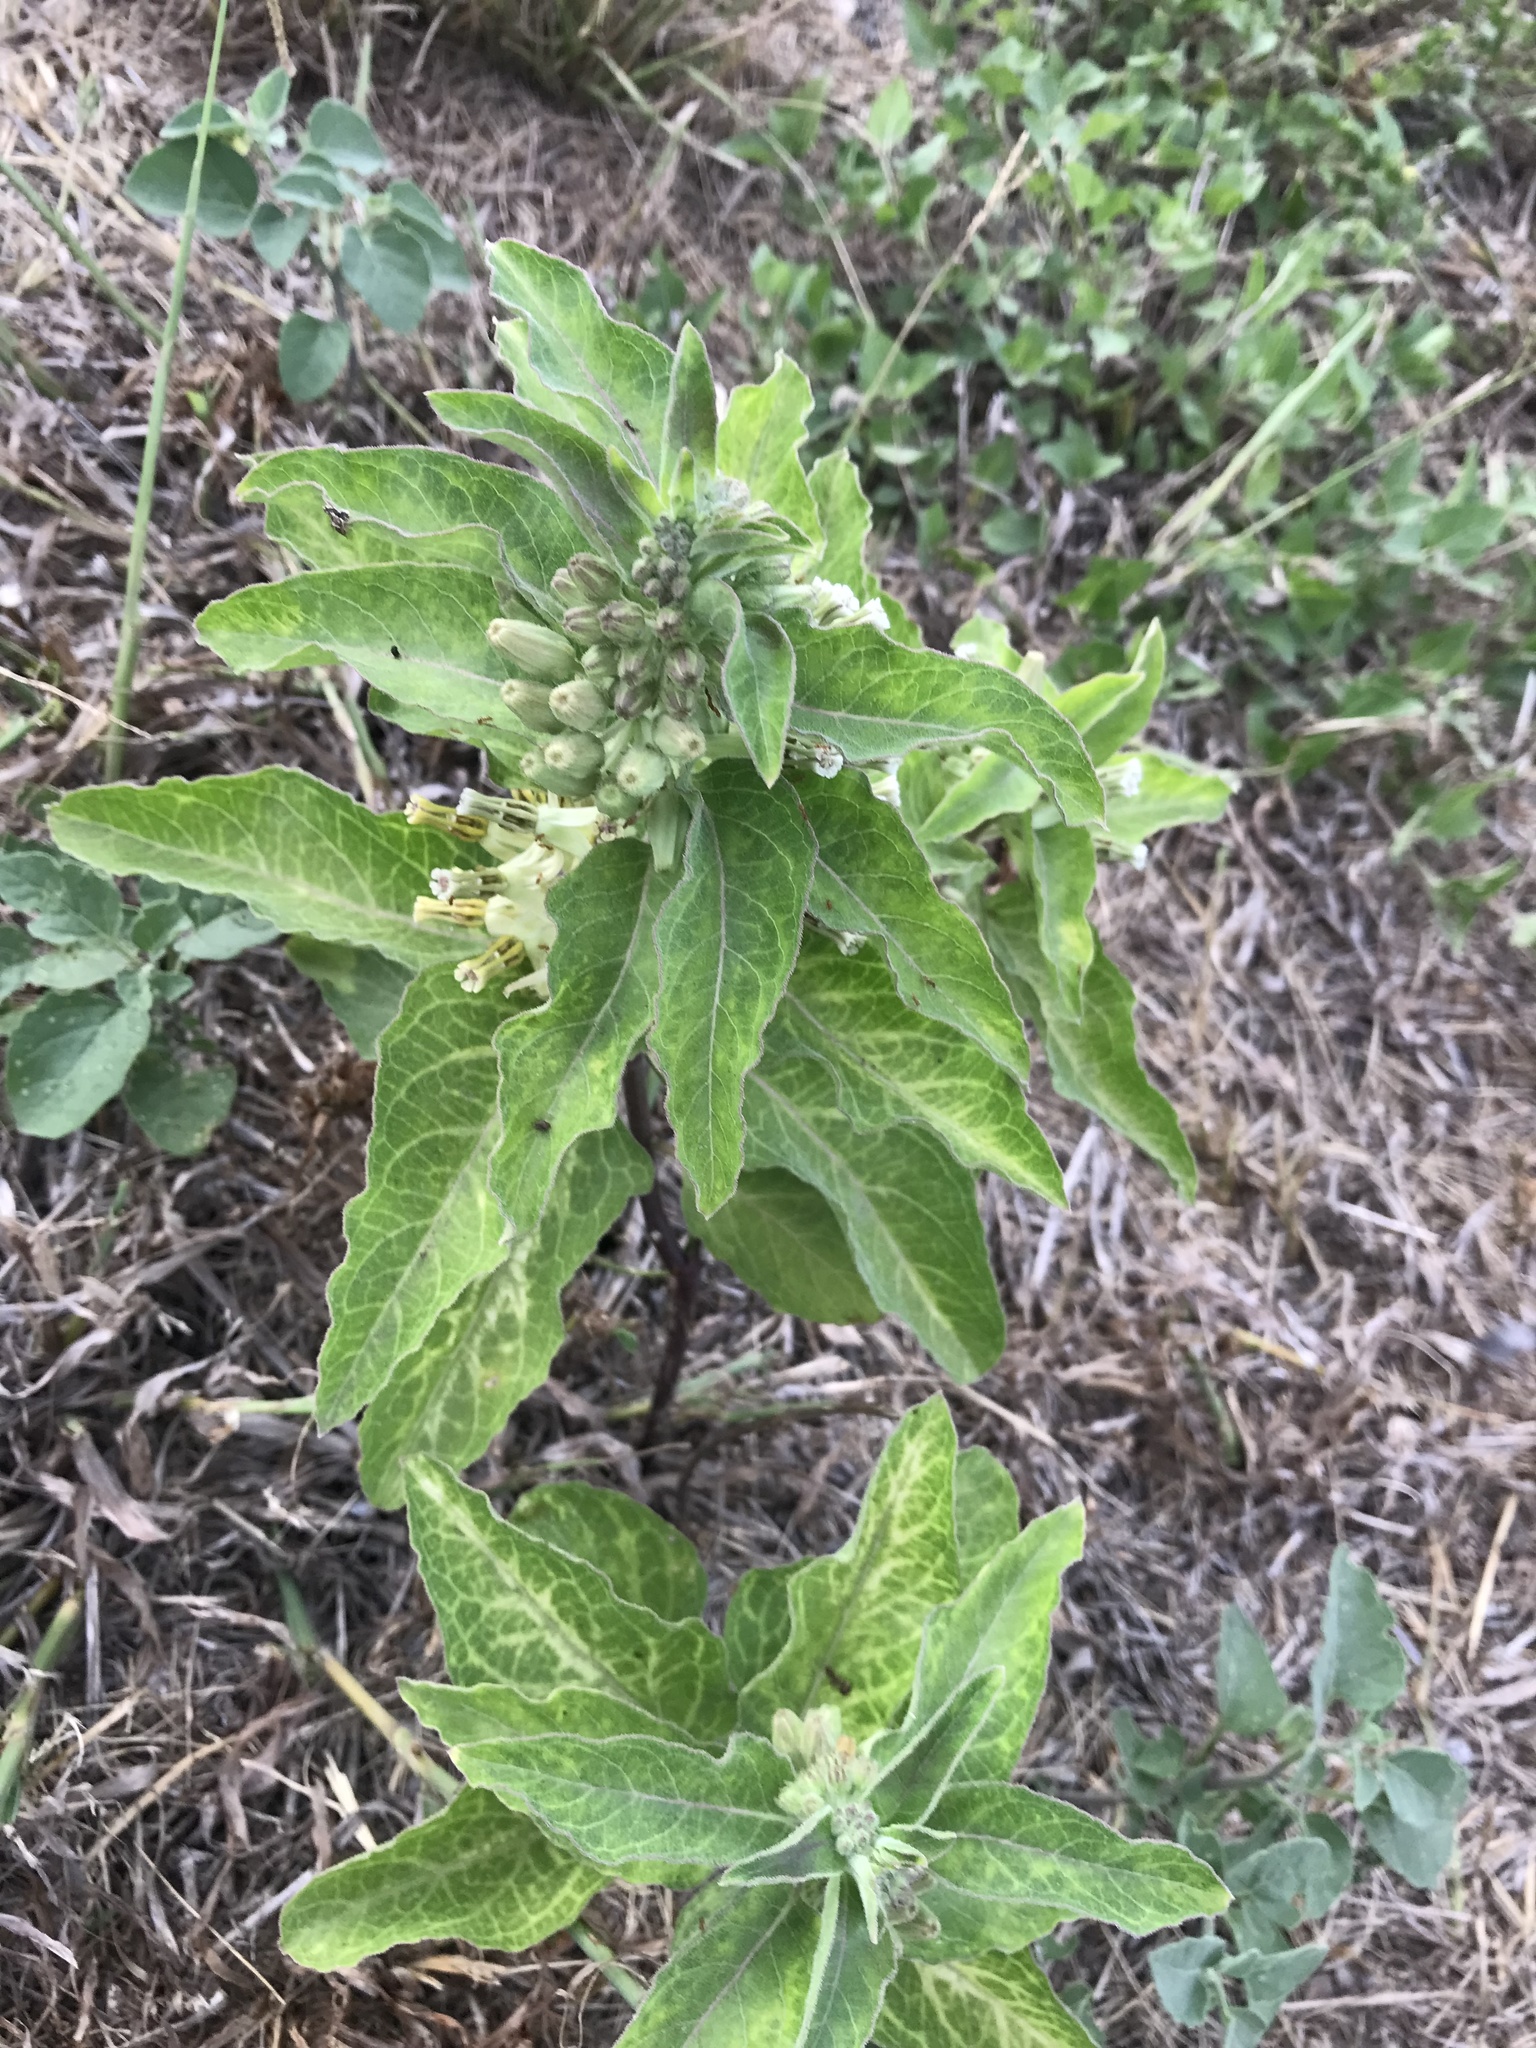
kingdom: Plantae
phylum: Tracheophyta
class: Magnoliopsida
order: Gentianales
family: Apocynaceae
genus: Asclepias
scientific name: Asclepias oenotheroides
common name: Zizotes milkweed
